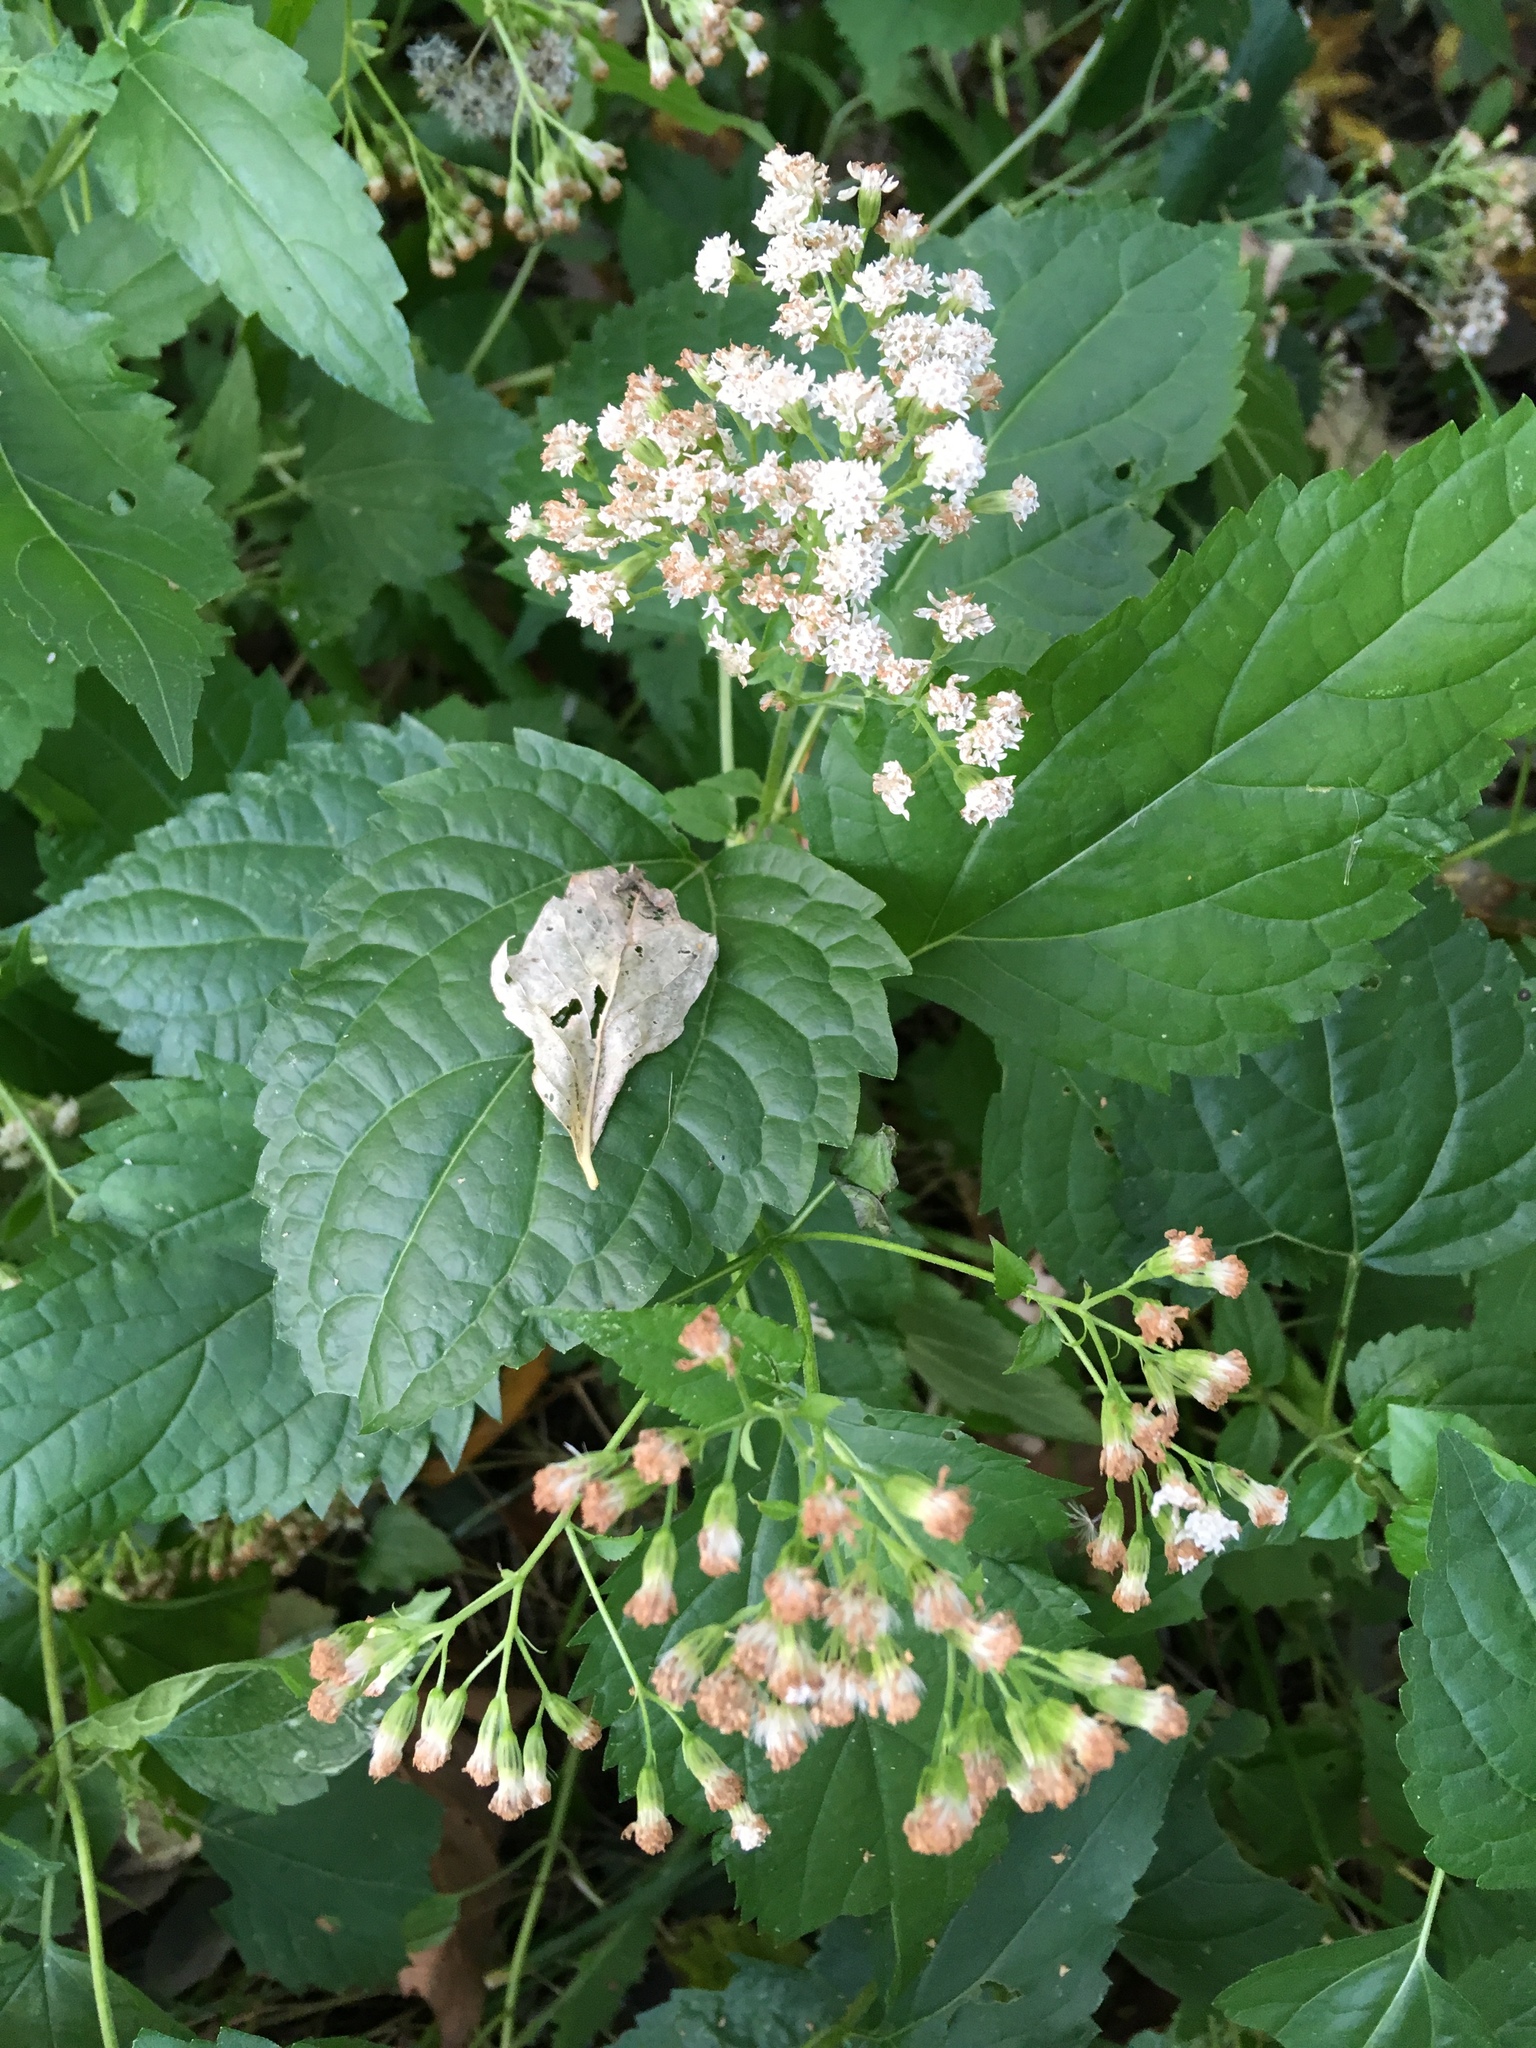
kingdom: Plantae
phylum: Tracheophyta
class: Magnoliopsida
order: Asterales
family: Asteraceae
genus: Ageratina
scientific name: Ageratina altissima
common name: White snakeroot
